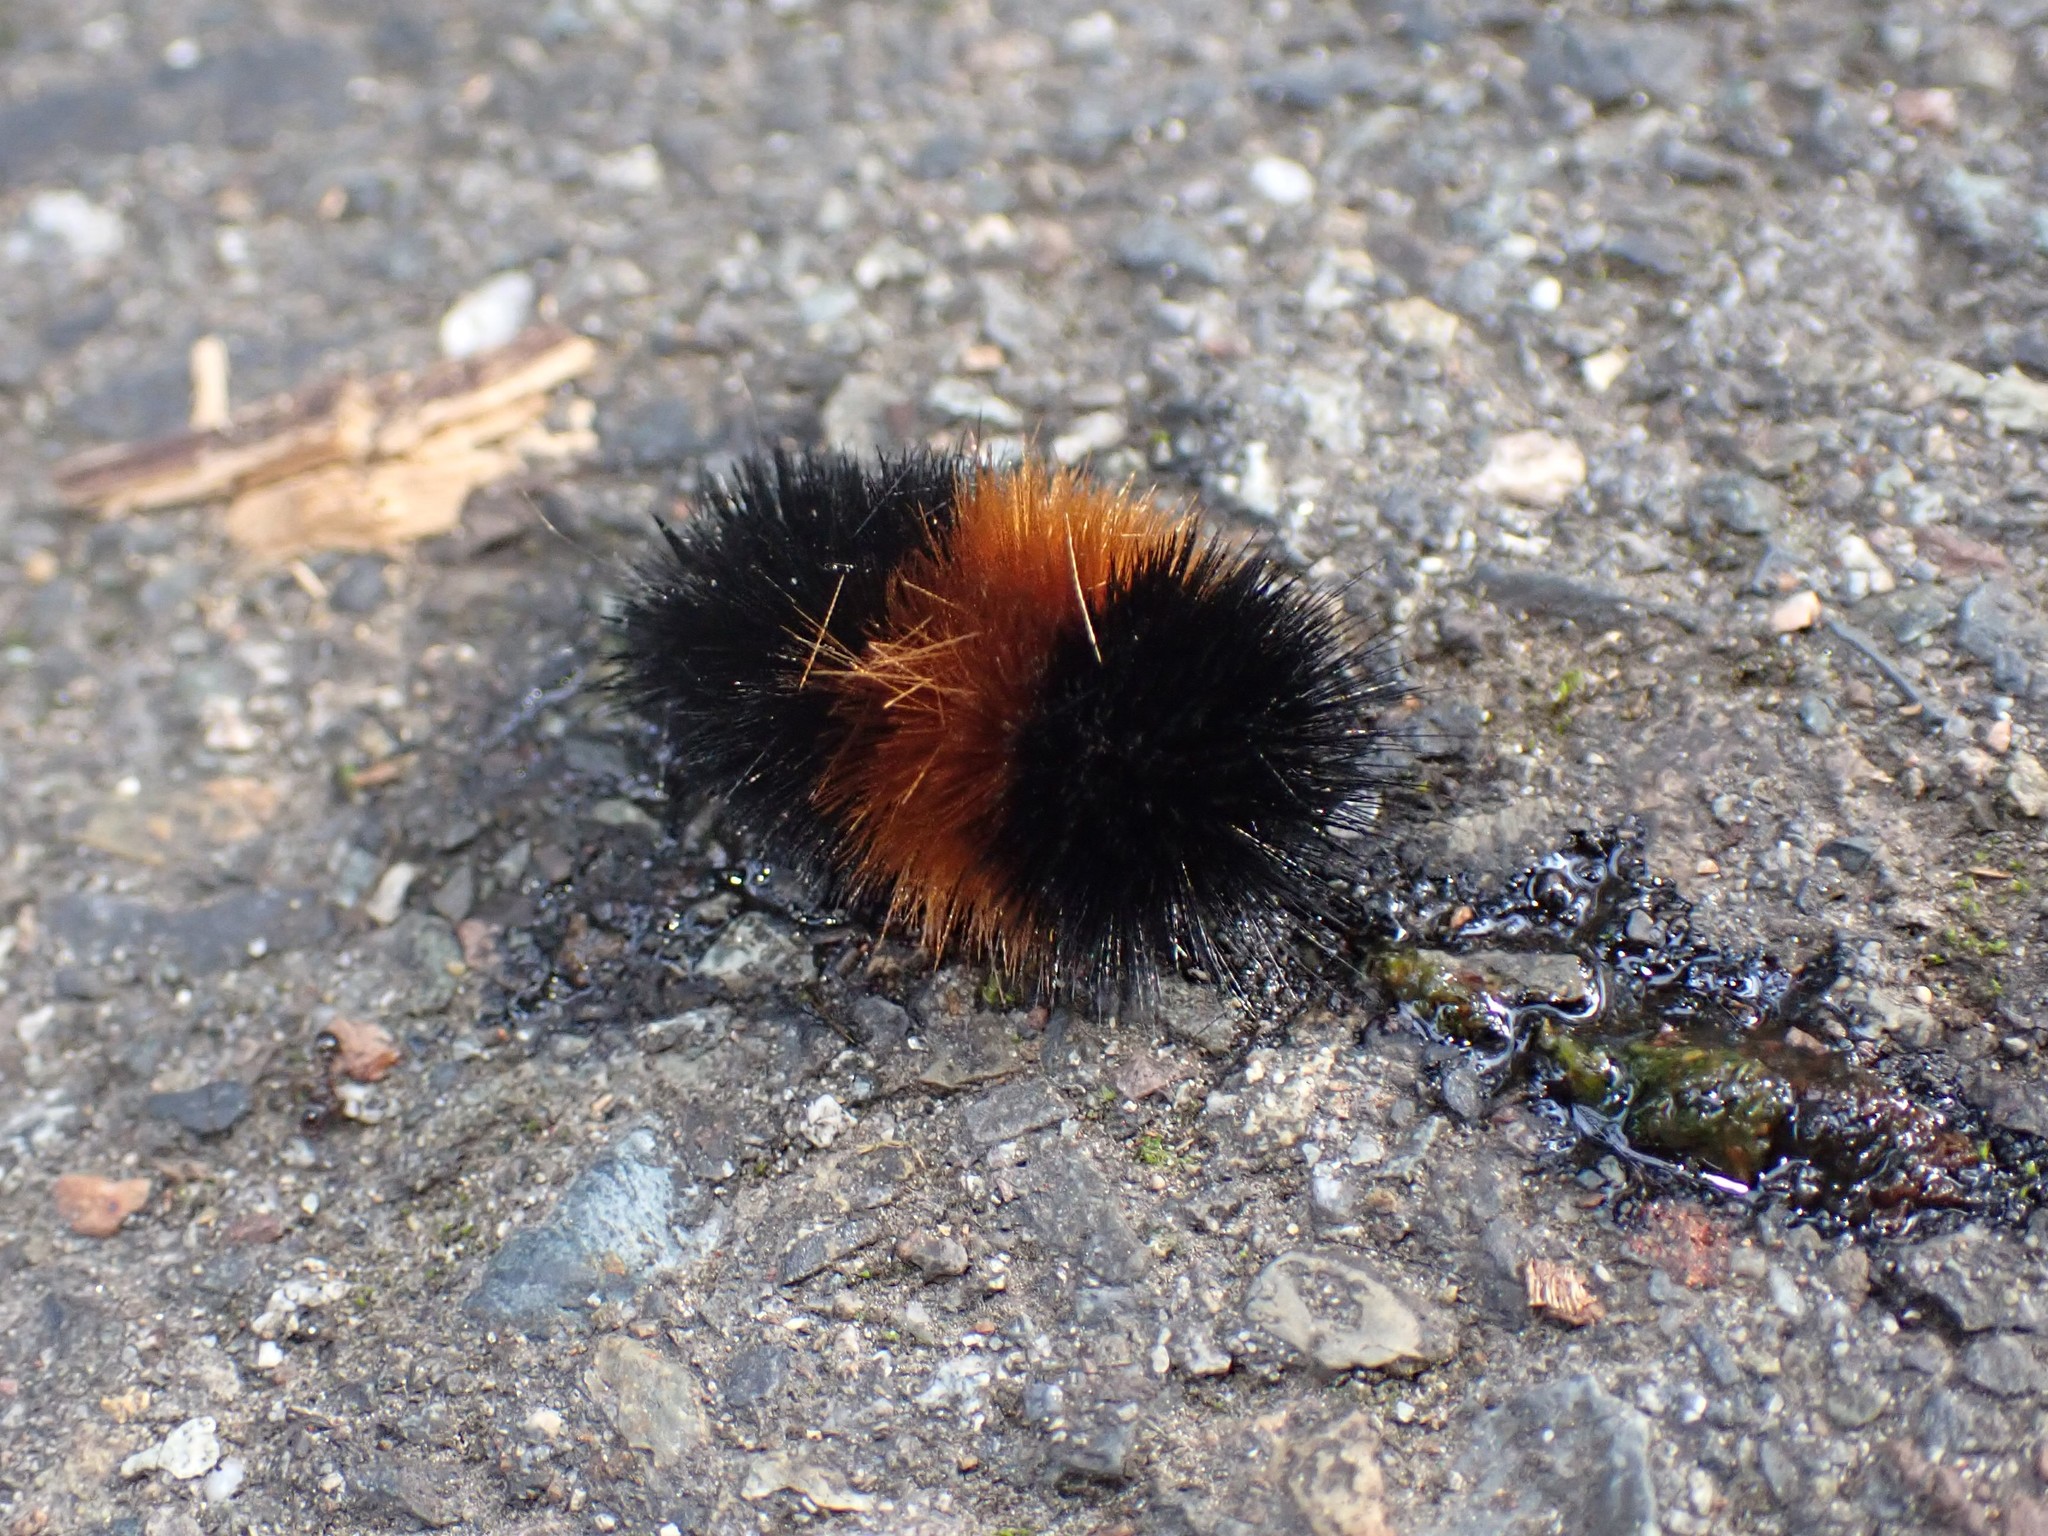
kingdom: Animalia
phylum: Arthropoda
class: Insecta
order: Lepidoptera
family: Erebidae
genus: Pyrrharctia
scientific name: Pyrrharctia isabella
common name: Isabella tiger moth
